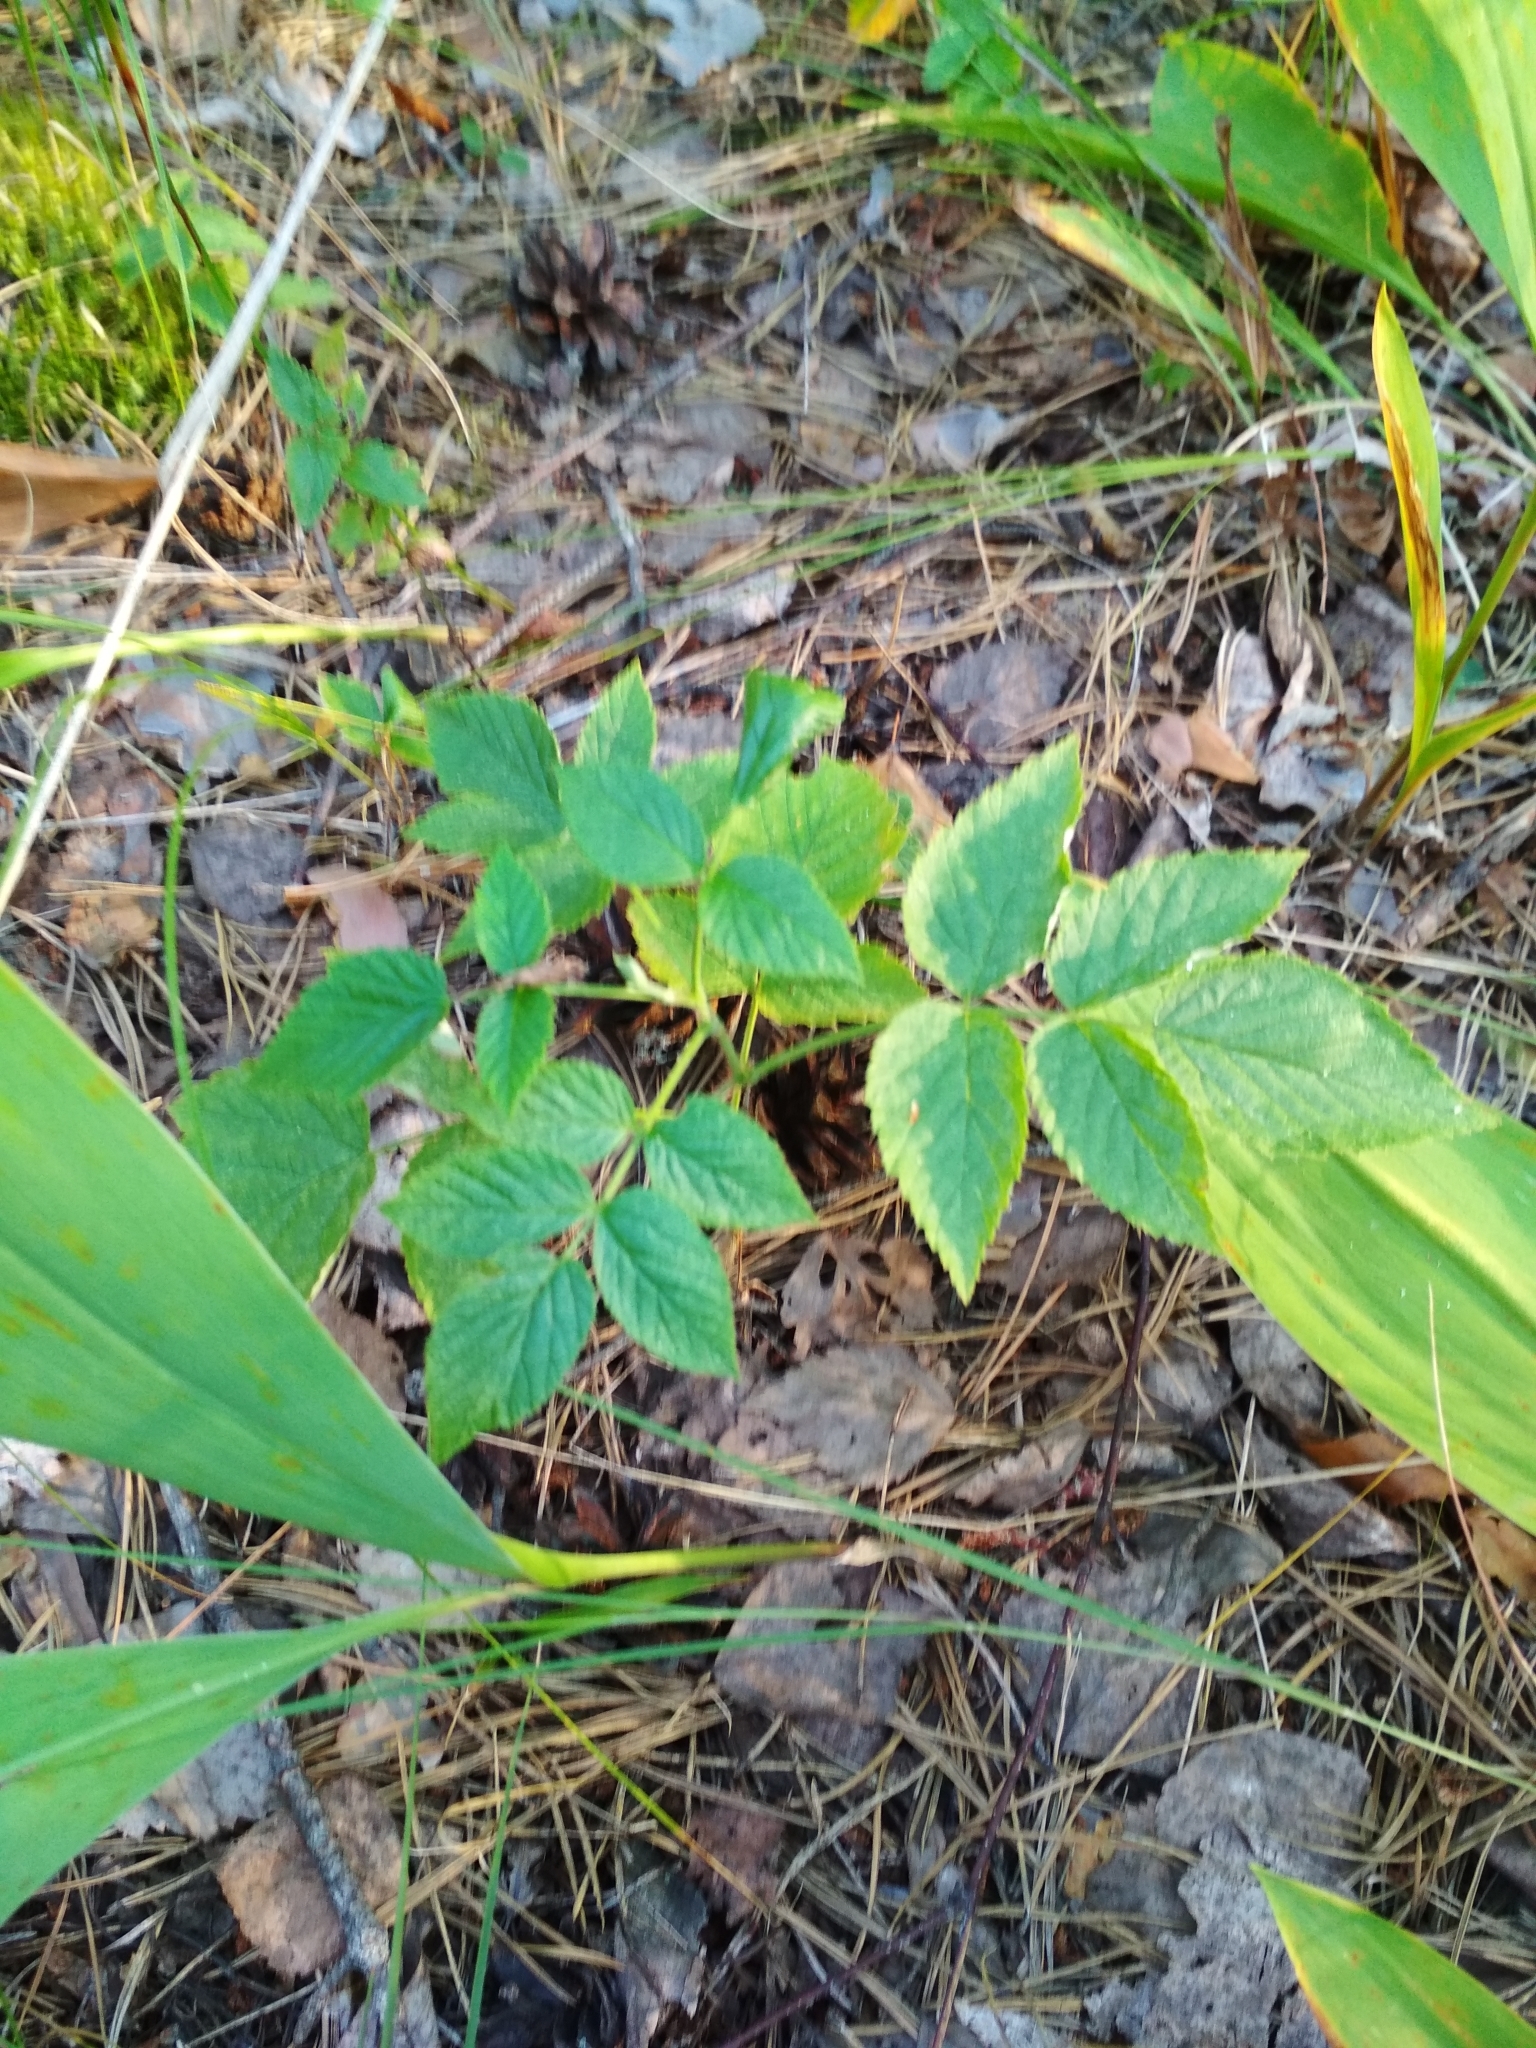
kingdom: Plantae
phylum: Tracheophyta
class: Magnoliopsida
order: Rosales
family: Rosaceae
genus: Rubus
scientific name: Rubus idaeus
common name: Raspberry
